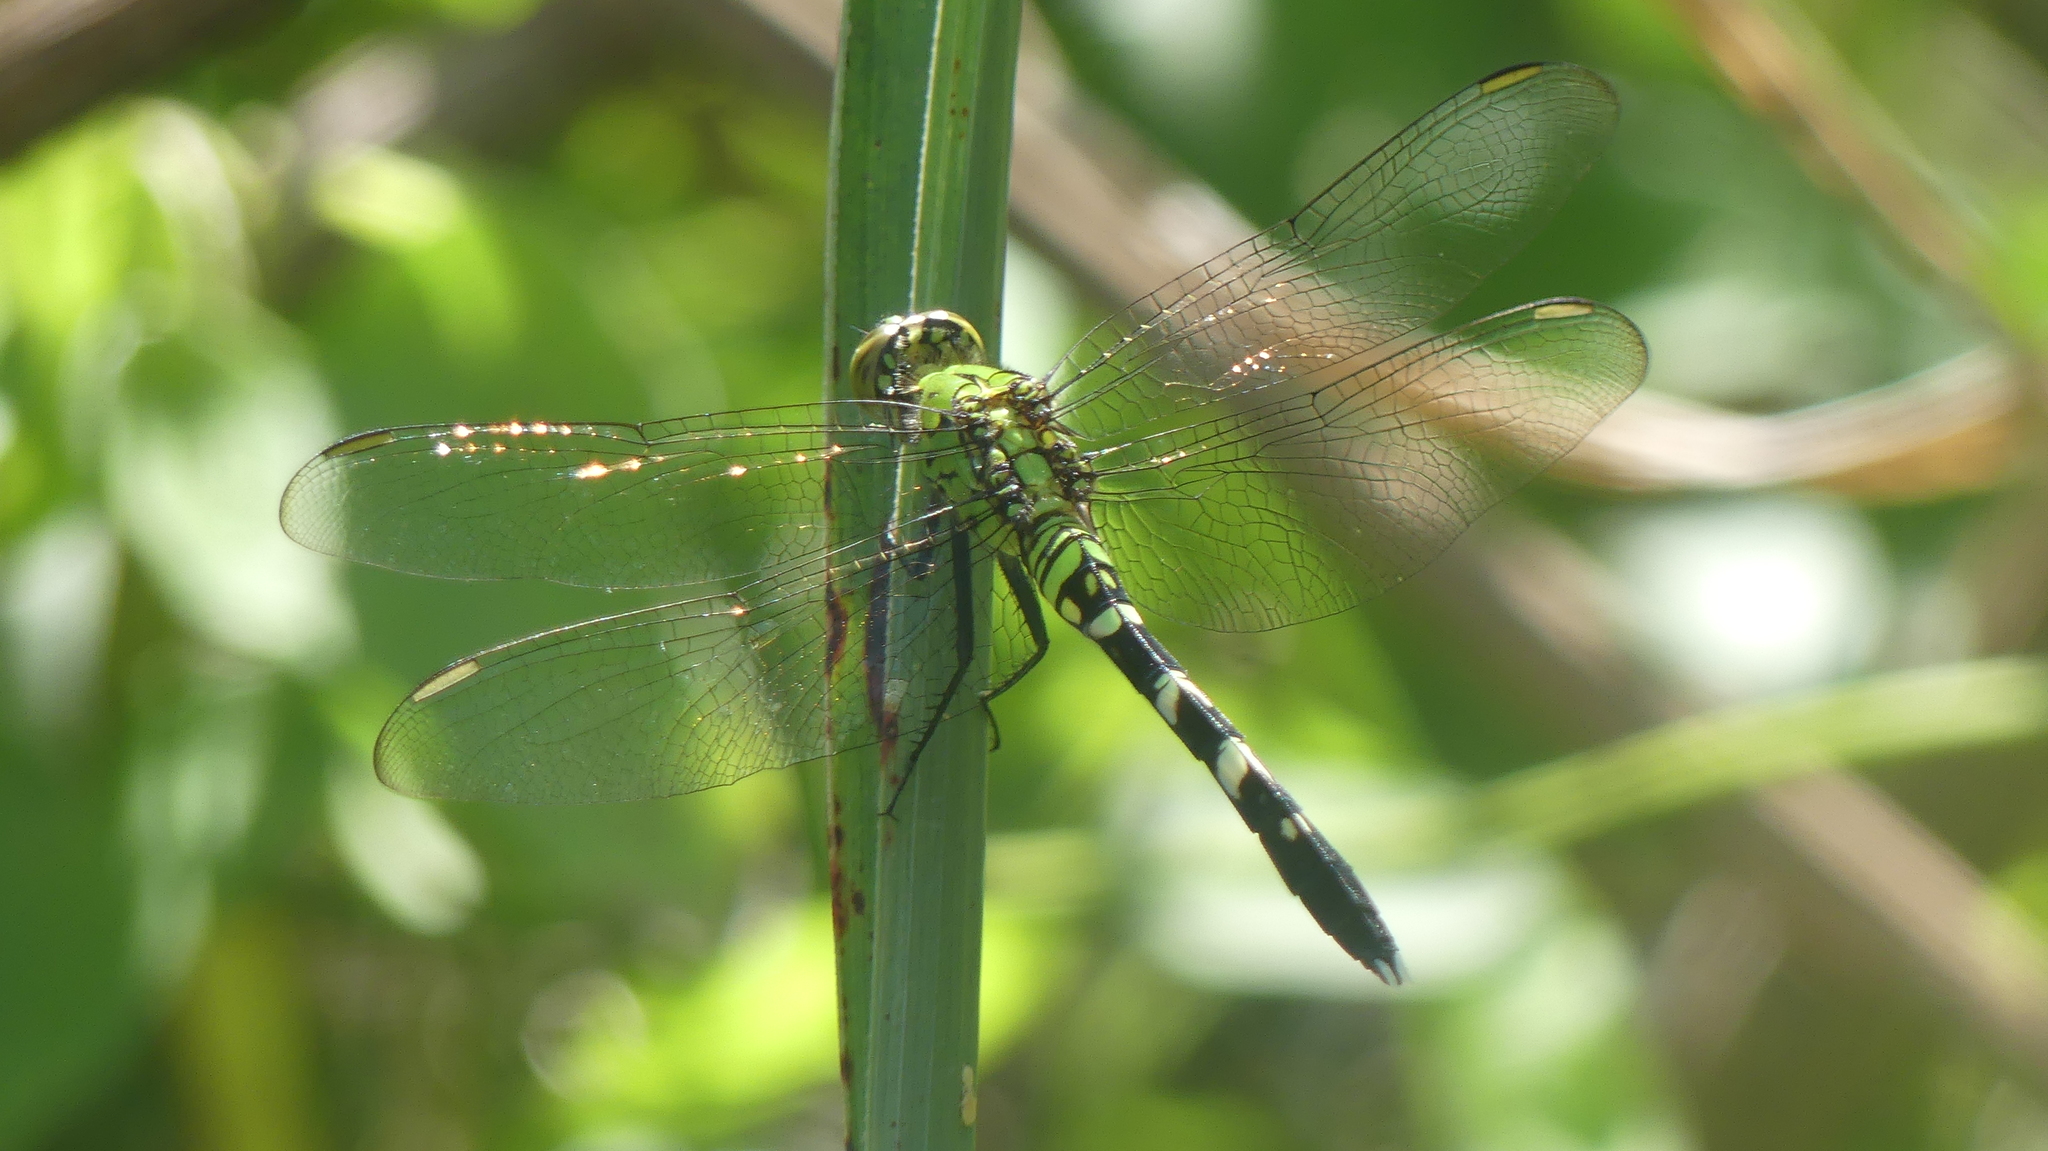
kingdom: Animalia
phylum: Arthropoda
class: Insecta
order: Odonata
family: Libellulidae
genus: Erythemis
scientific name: Erythemis simplicicollis
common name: Eastern pondhawk
